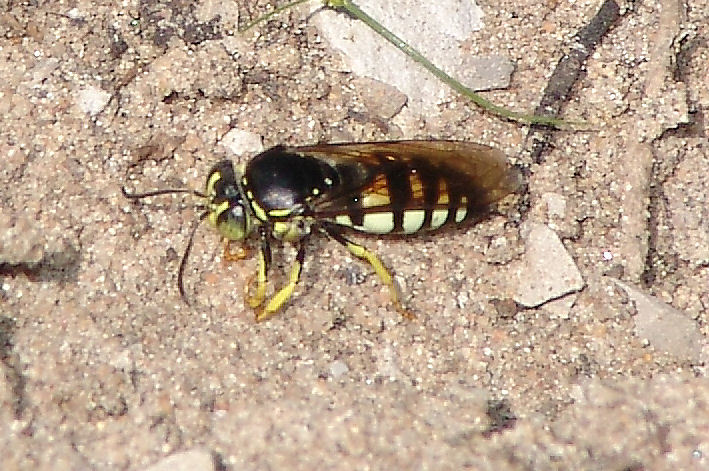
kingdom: Animalia
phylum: Arthropoda
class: Insecta
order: Hymenoptera
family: Crabronidae
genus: Bicyrtes
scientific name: Bicyrtes quadrifasciatus
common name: Four-banded stink bug hunter wasp
